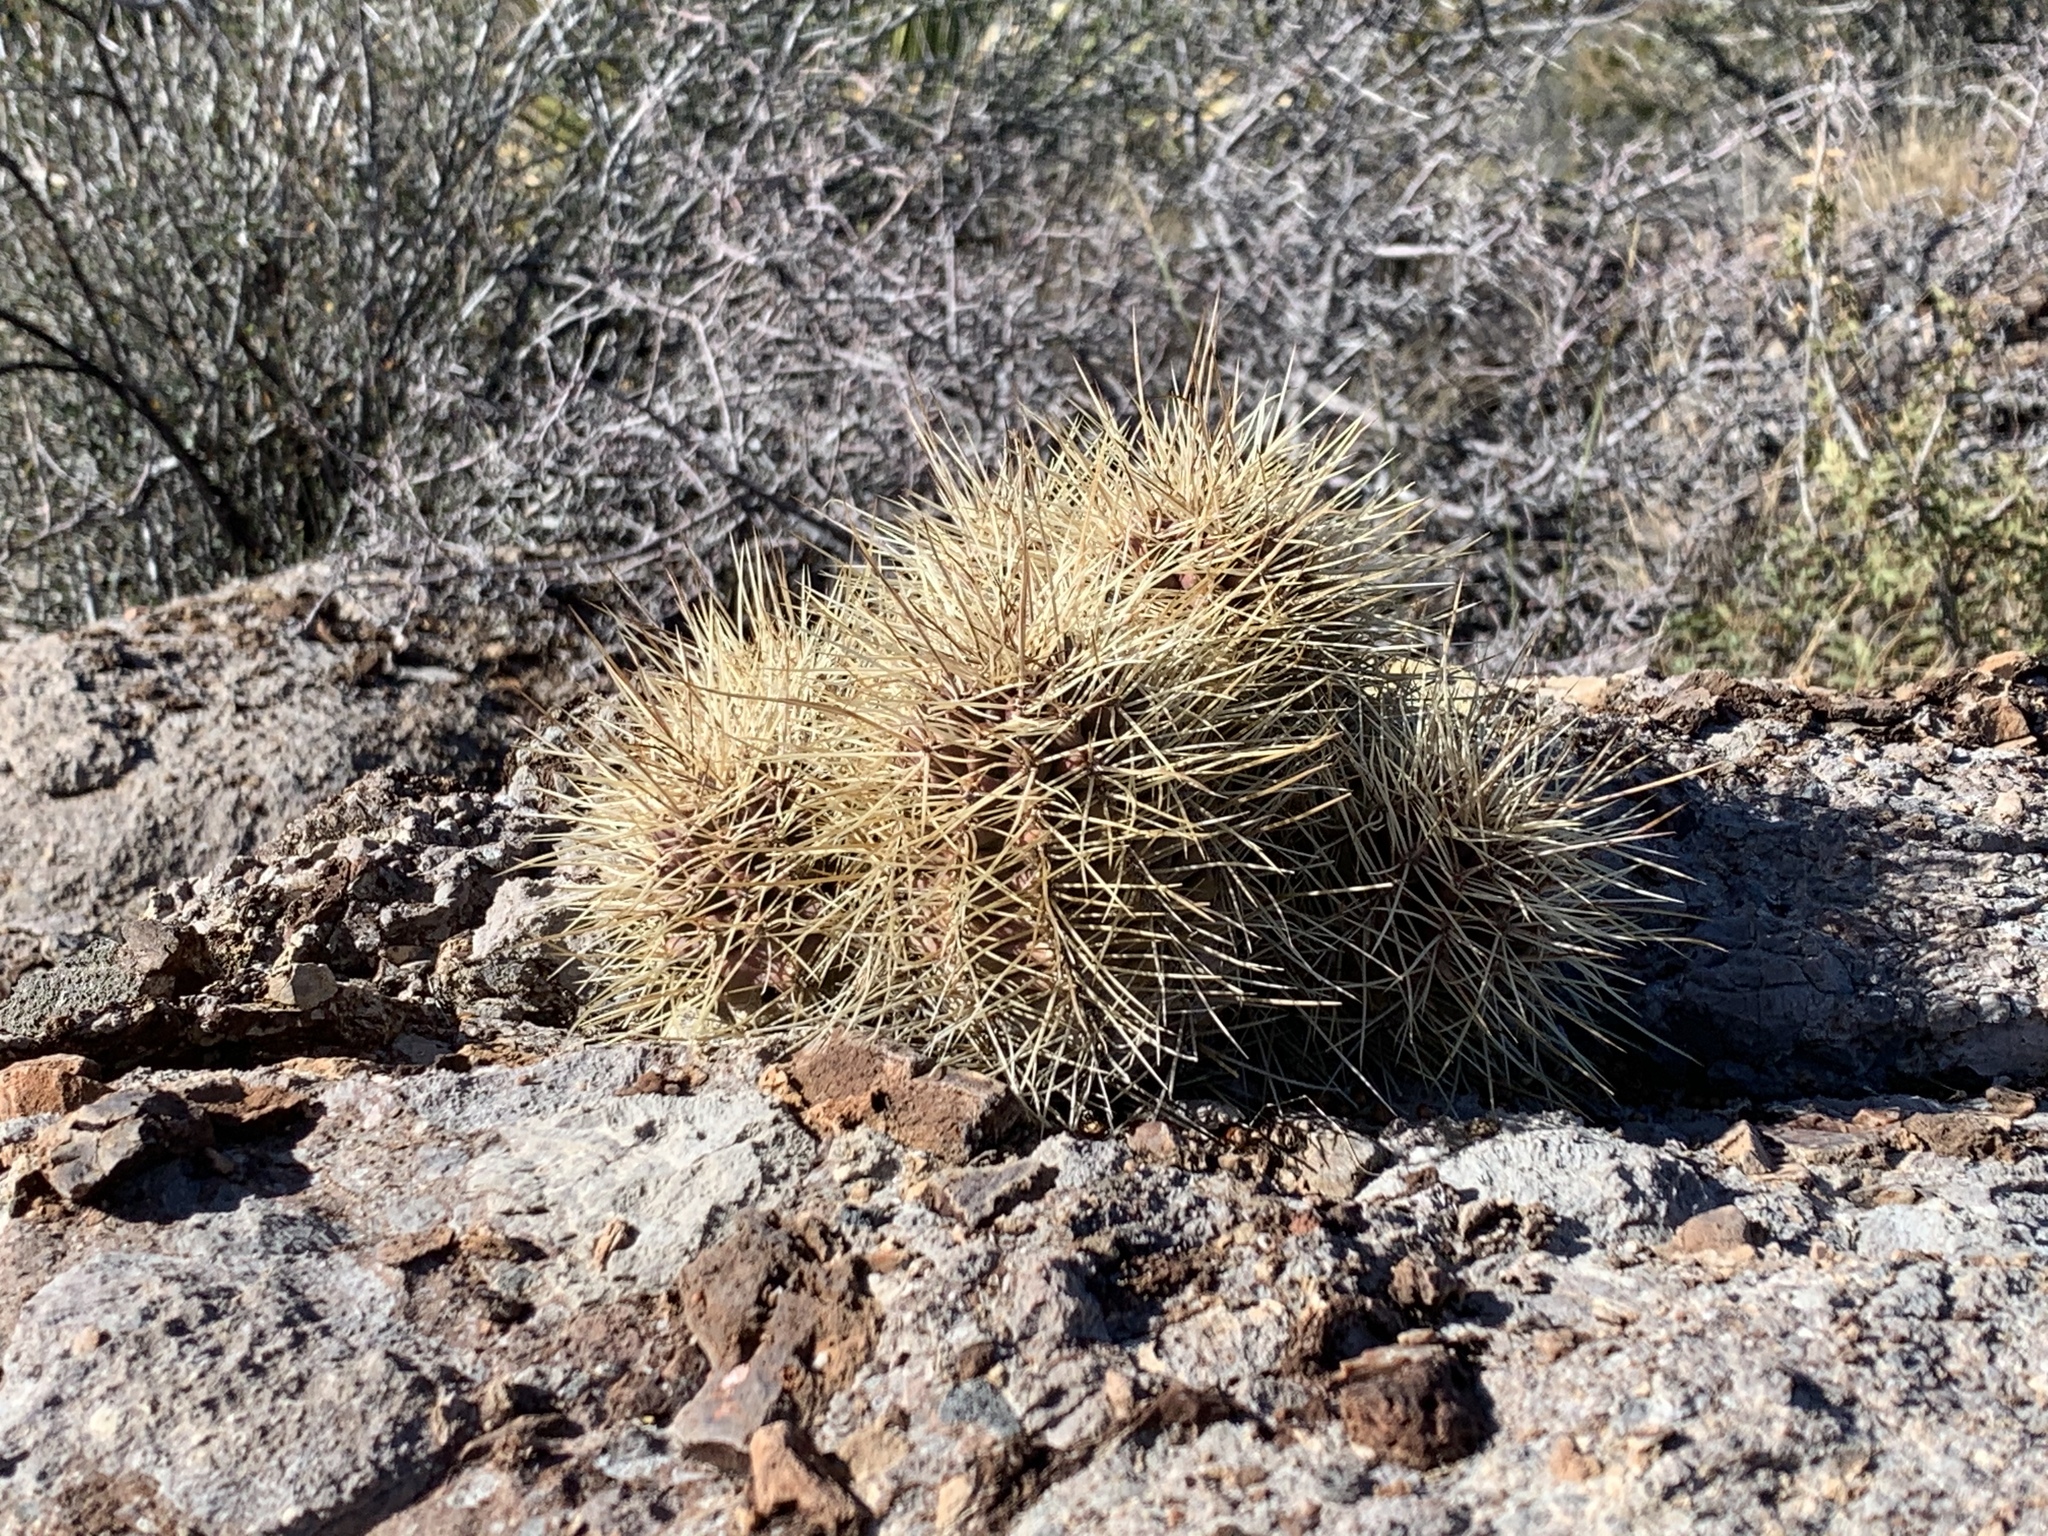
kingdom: Plantae
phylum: Tracheophyta
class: Magnoliopsida
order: Caryophyllales
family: Cactaceae
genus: Echinocereus
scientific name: Echinocereus coccineus
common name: Scarlet hedgehog cactus
